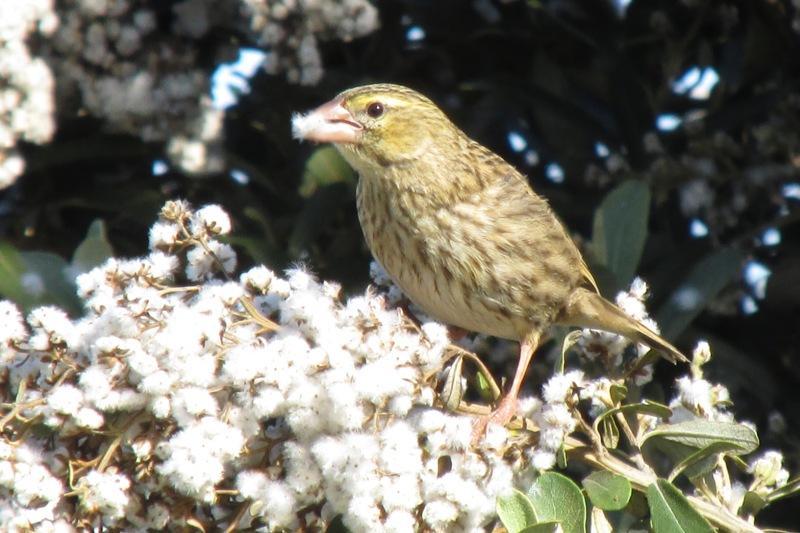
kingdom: Plantae
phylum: Tracheophyta
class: Magnoliopsida
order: Asterales
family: Asteraceae
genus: Tarchonanthus
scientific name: Tarchonanthus littoralis
